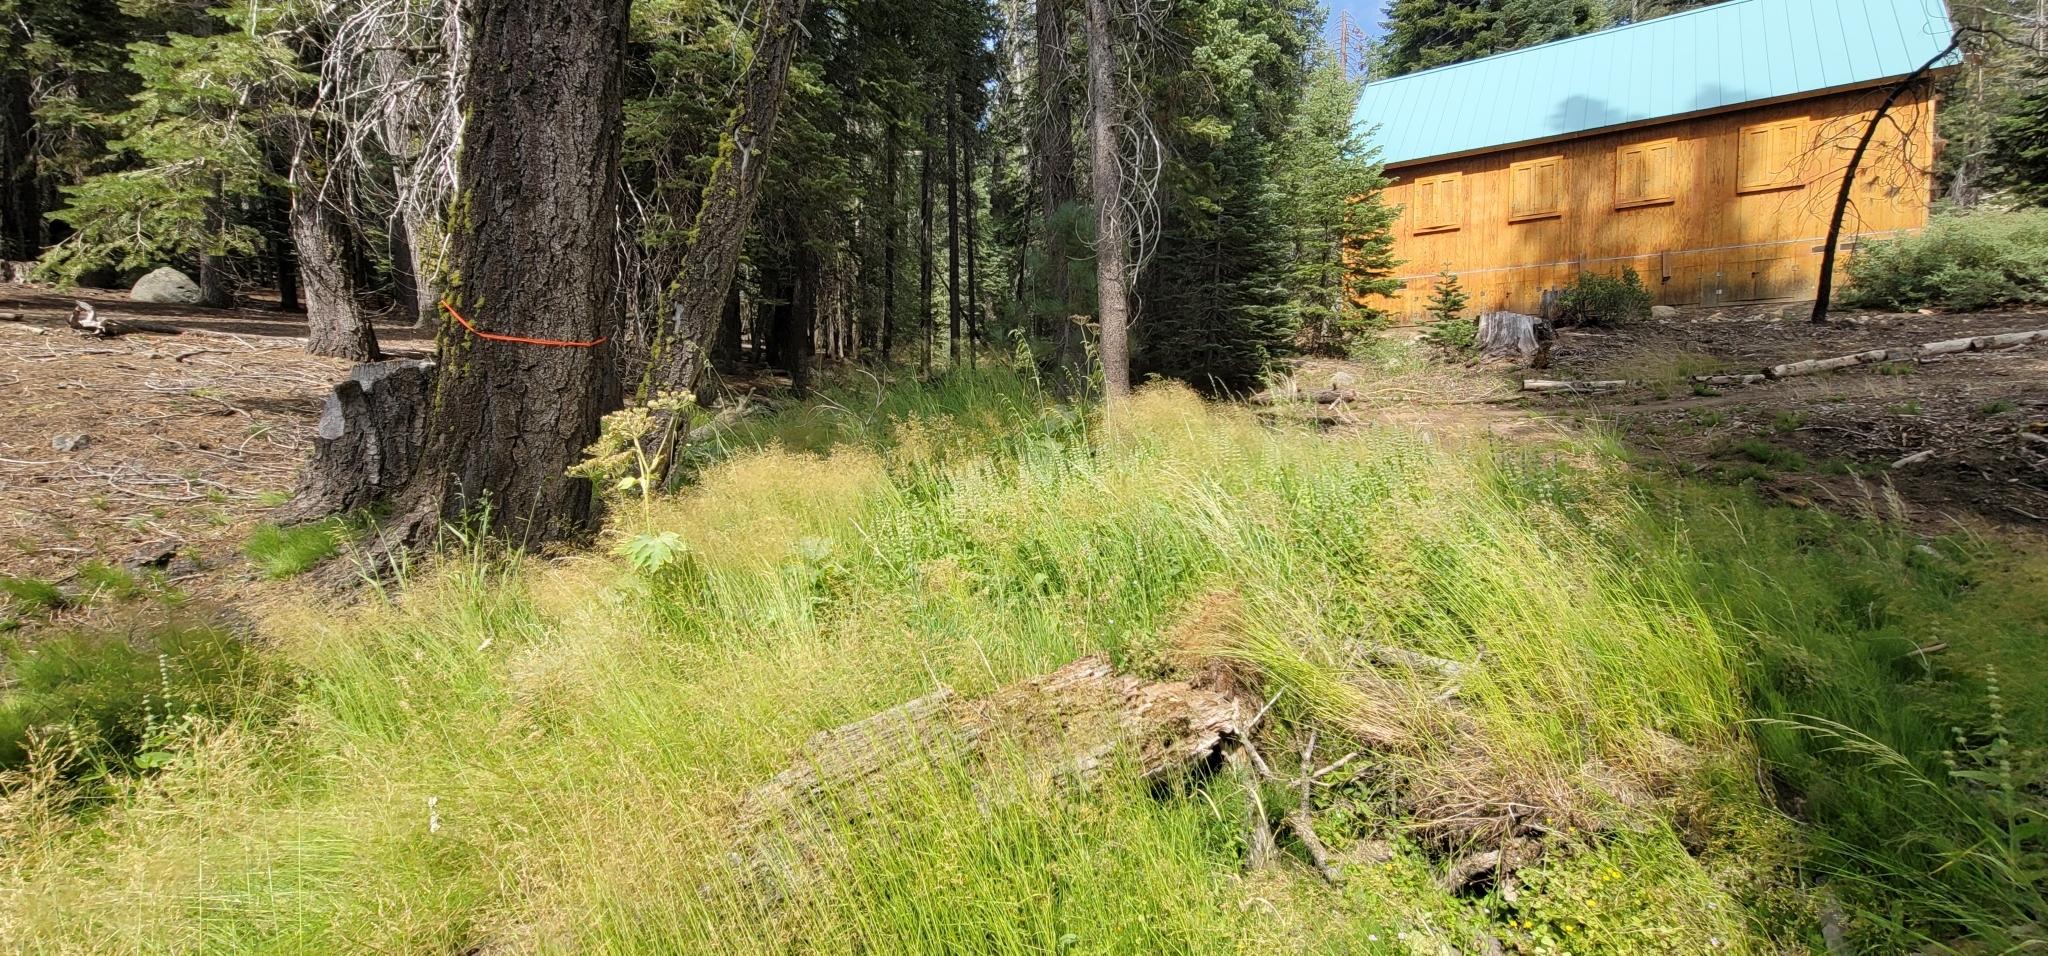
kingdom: Plantae
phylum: Tracheophyta
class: Liliopsida
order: Poales
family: Poaceae
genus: Cinna
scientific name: Cinna bolanderi
